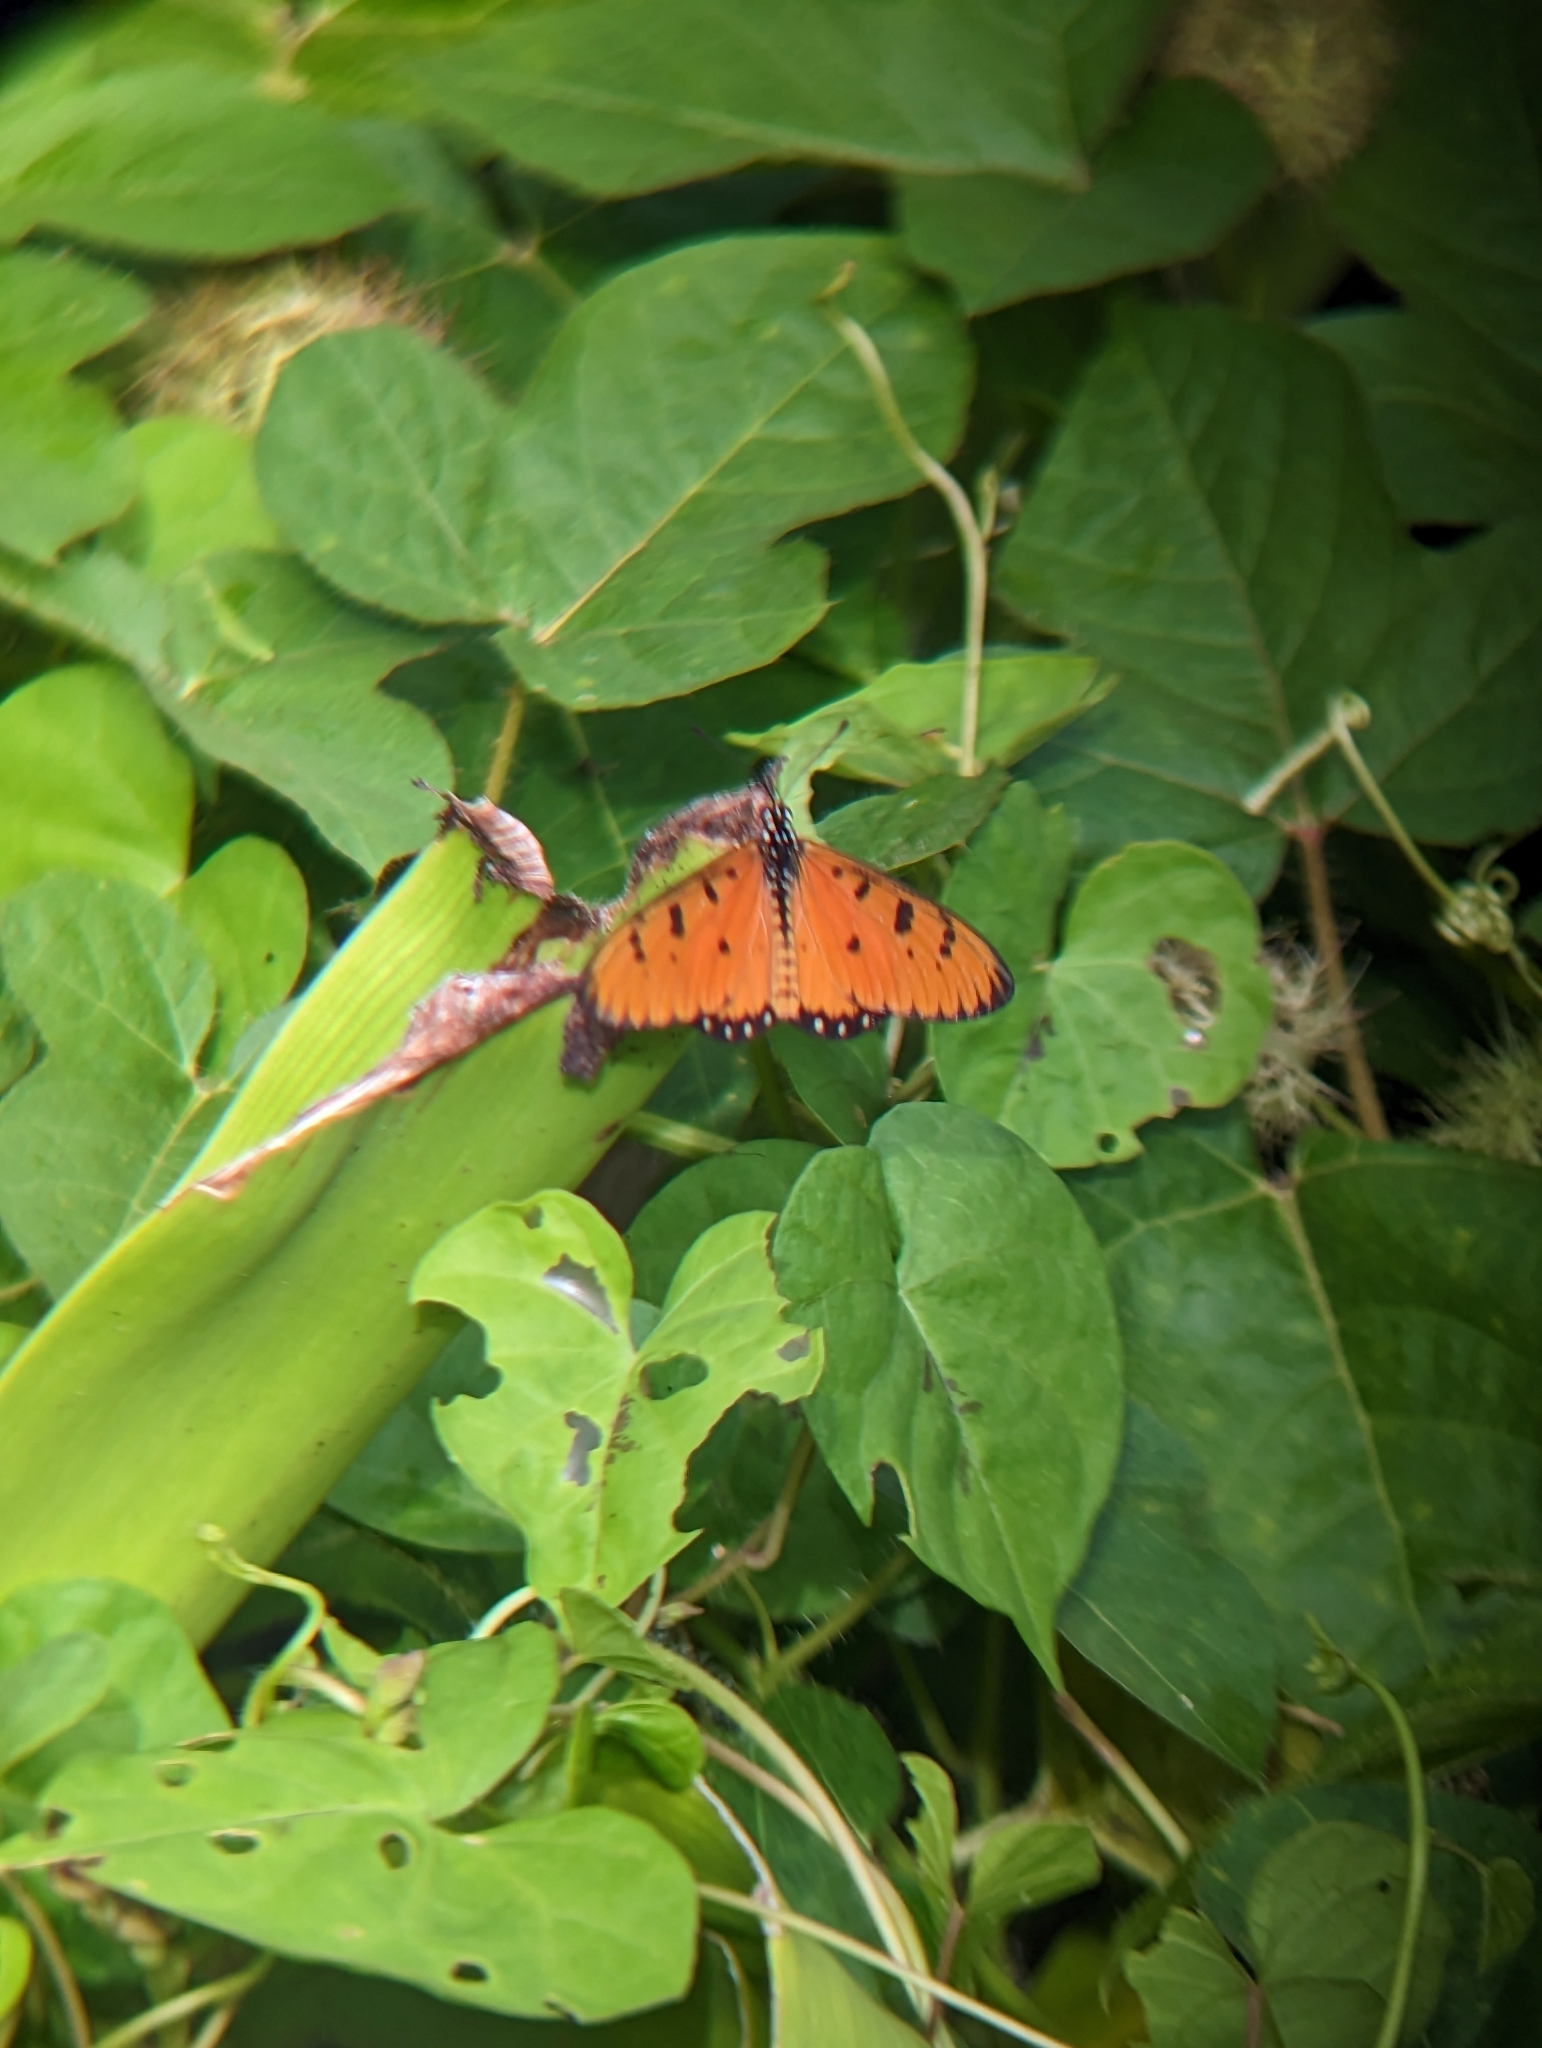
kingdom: Animalia
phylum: Arthropoda
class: Insecta
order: Lepidoptera
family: Nymphalidae
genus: Acraea
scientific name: Acraea terpsicore
